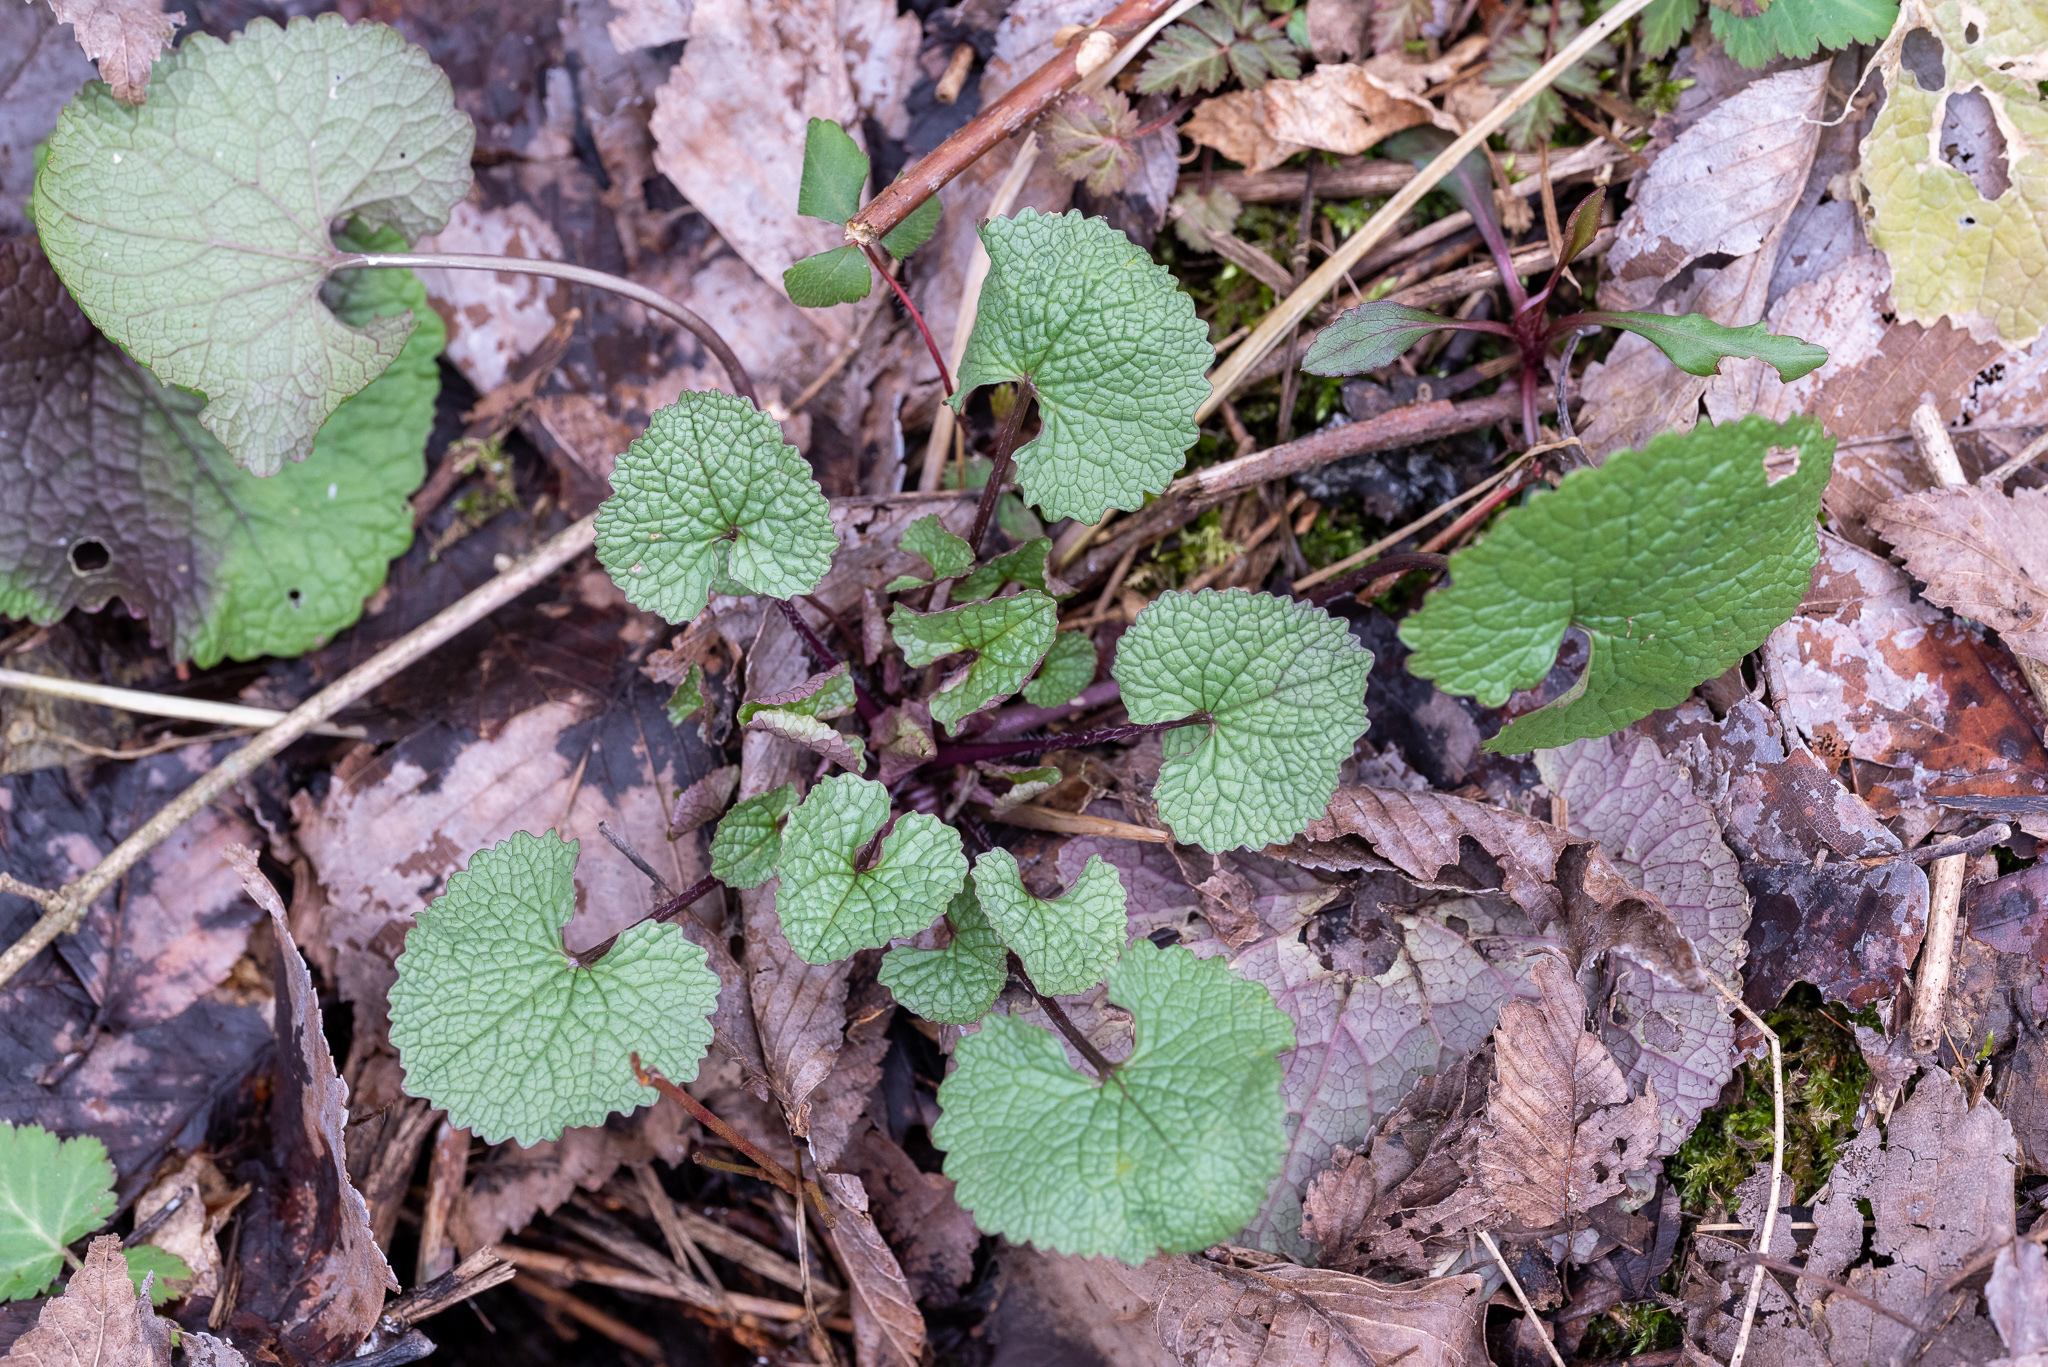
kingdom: Plantae
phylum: Tracheophyta
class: Magnoliopsida
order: Brassicales
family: Brassicaceae
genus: Alliaria
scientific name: Alliaria petiolata
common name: Garlic mustard
